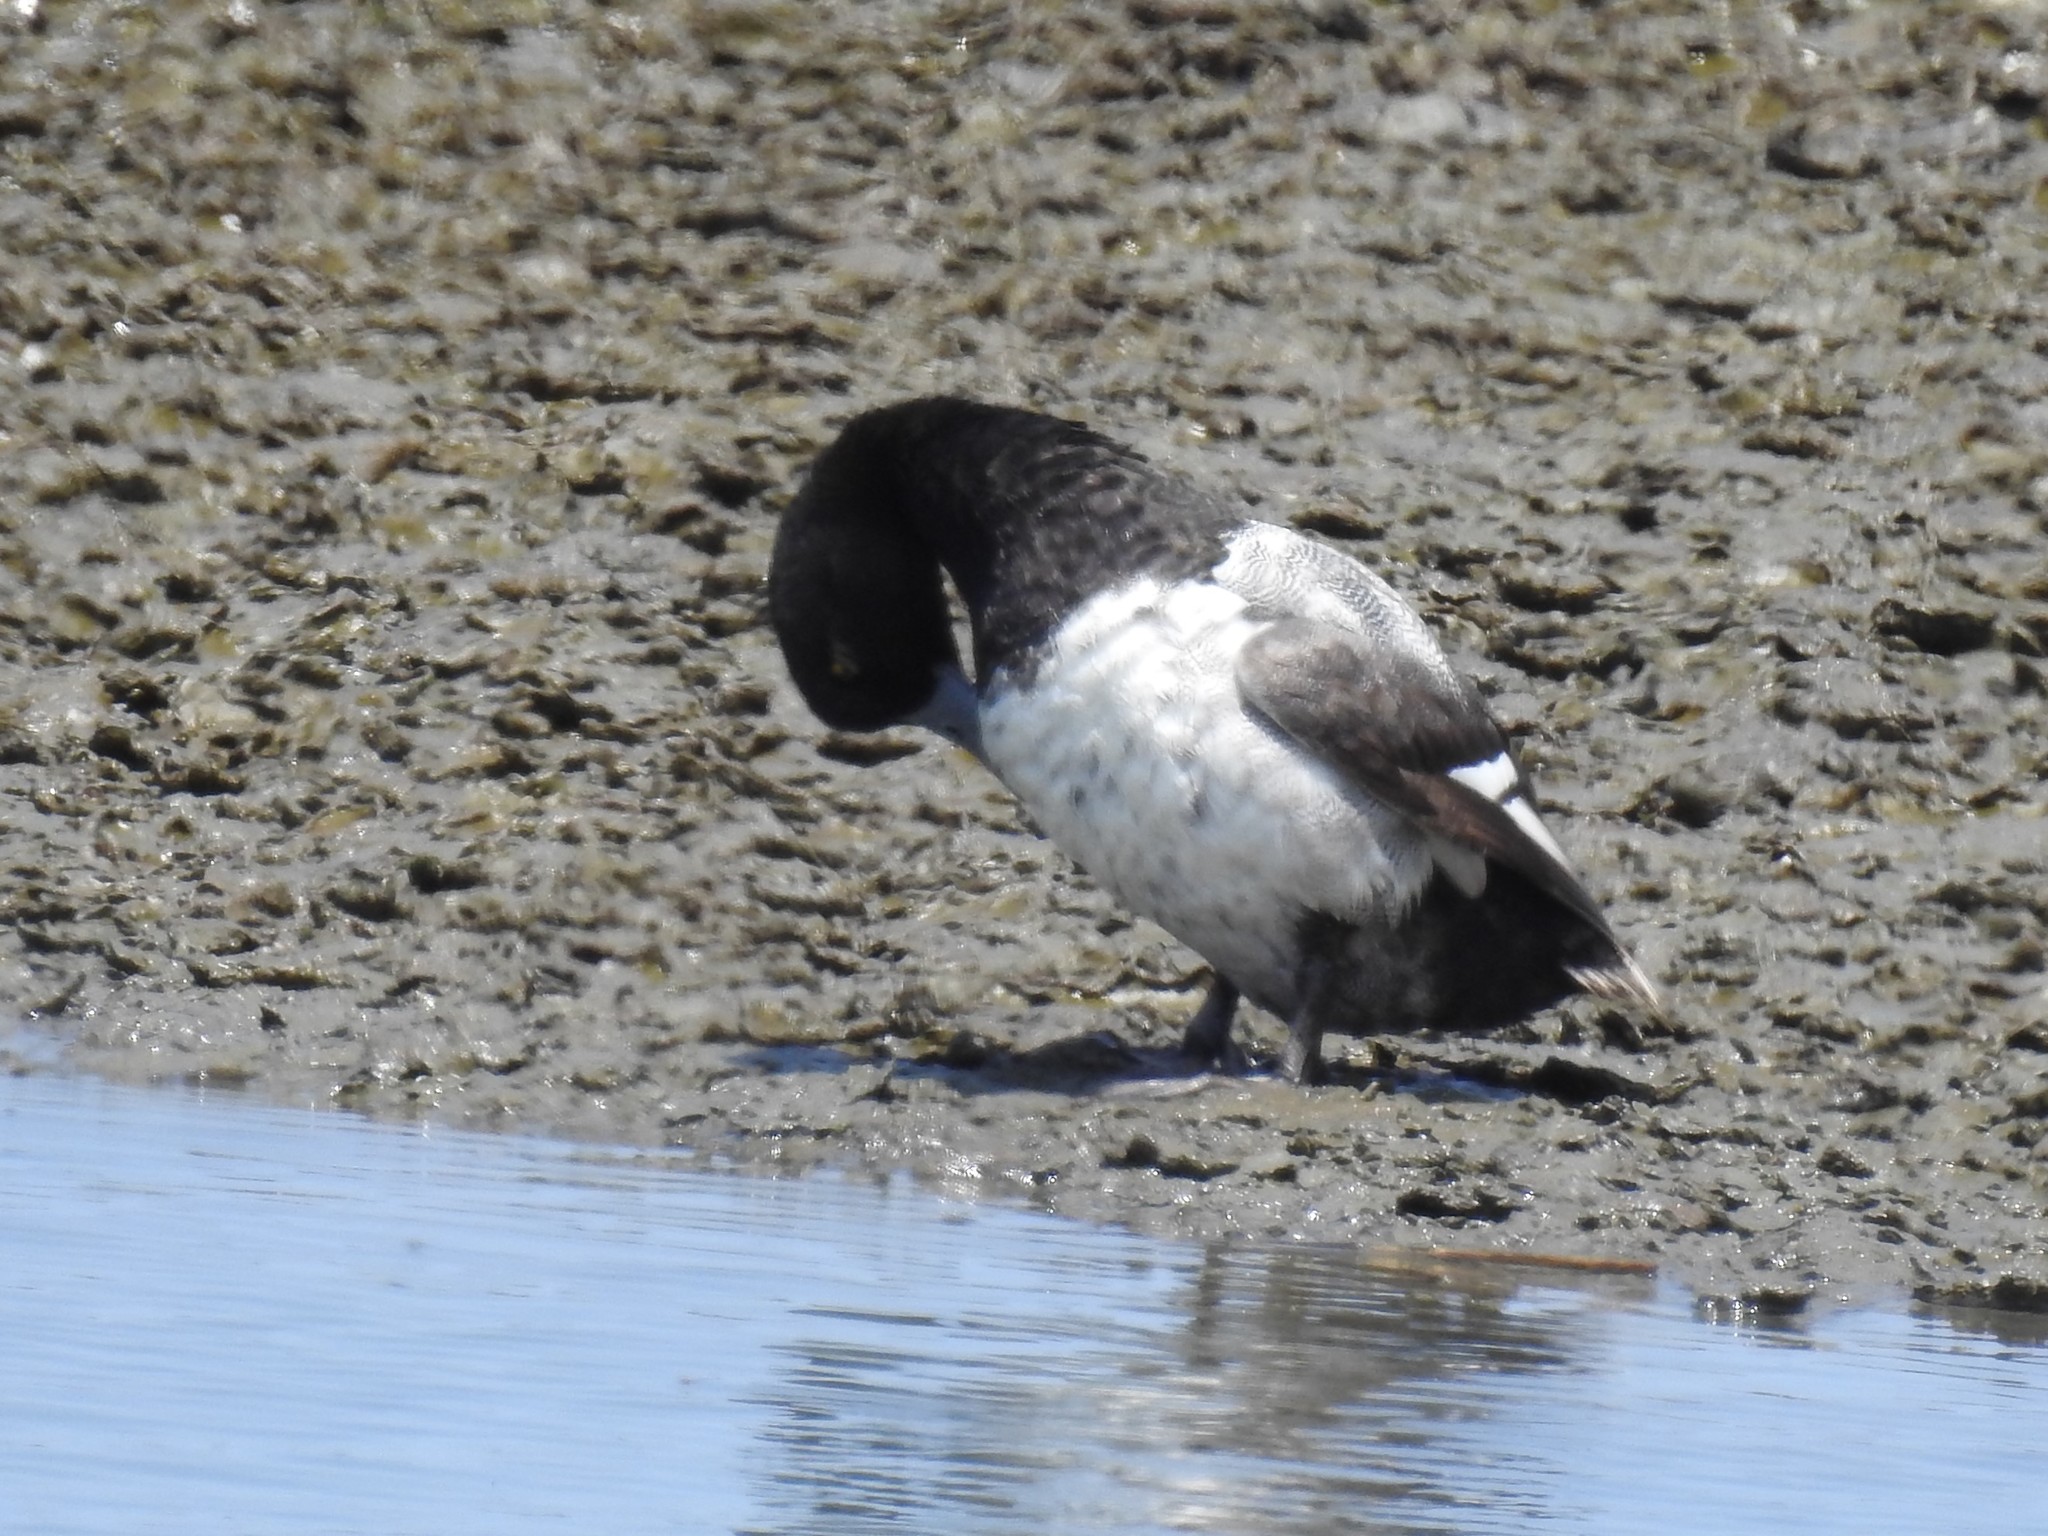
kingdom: Animalia
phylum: Chordata
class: Aves
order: Anseriformes
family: Anatidae
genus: Aythya
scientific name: Aythya marila
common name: Greater scaup
